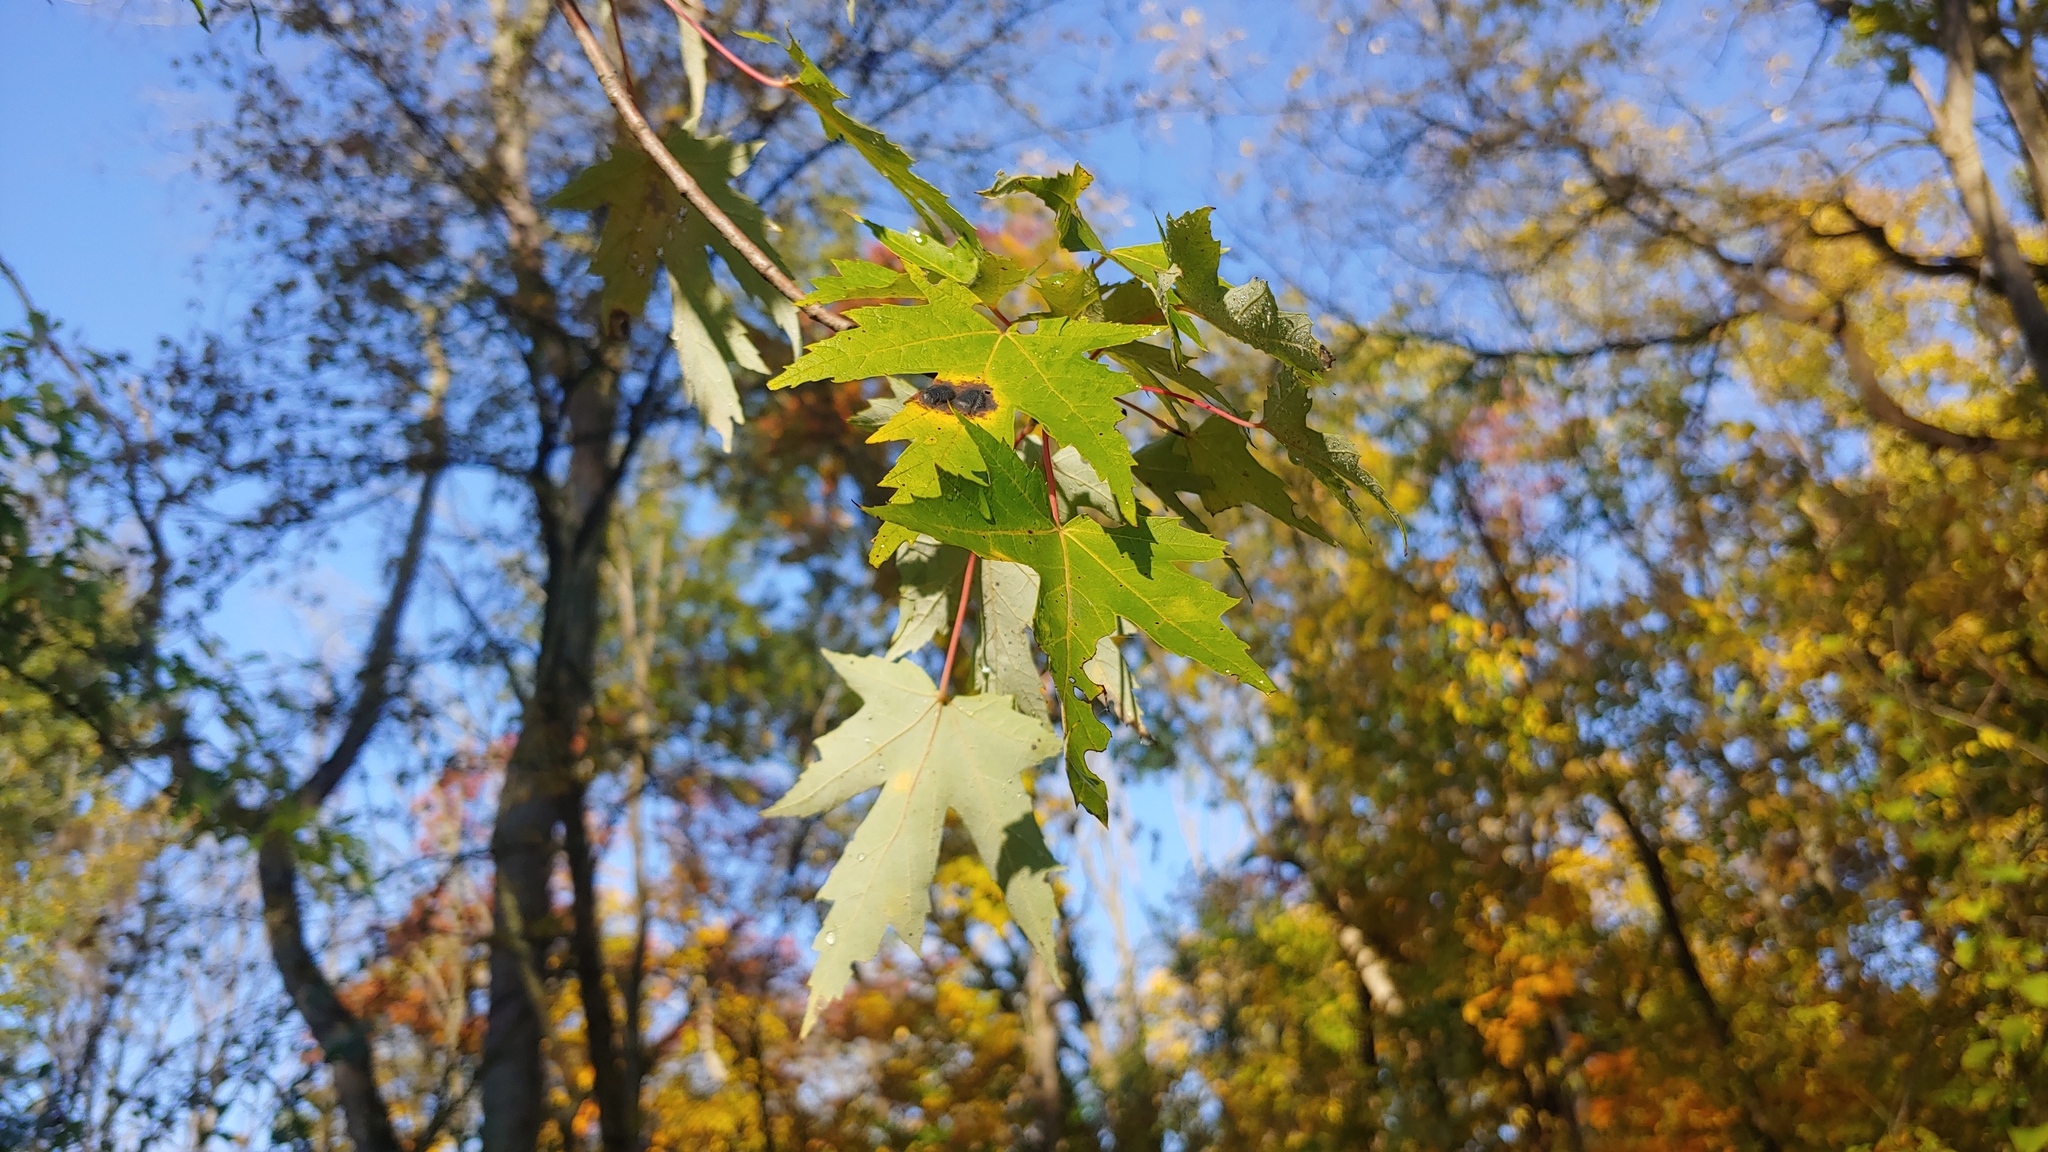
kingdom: Plantae
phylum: Tracheophyta
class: Magnoliopsida
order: Sapindales
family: Sapindaceae
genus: Acer
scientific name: Acer saccharinum
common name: Silver maple
